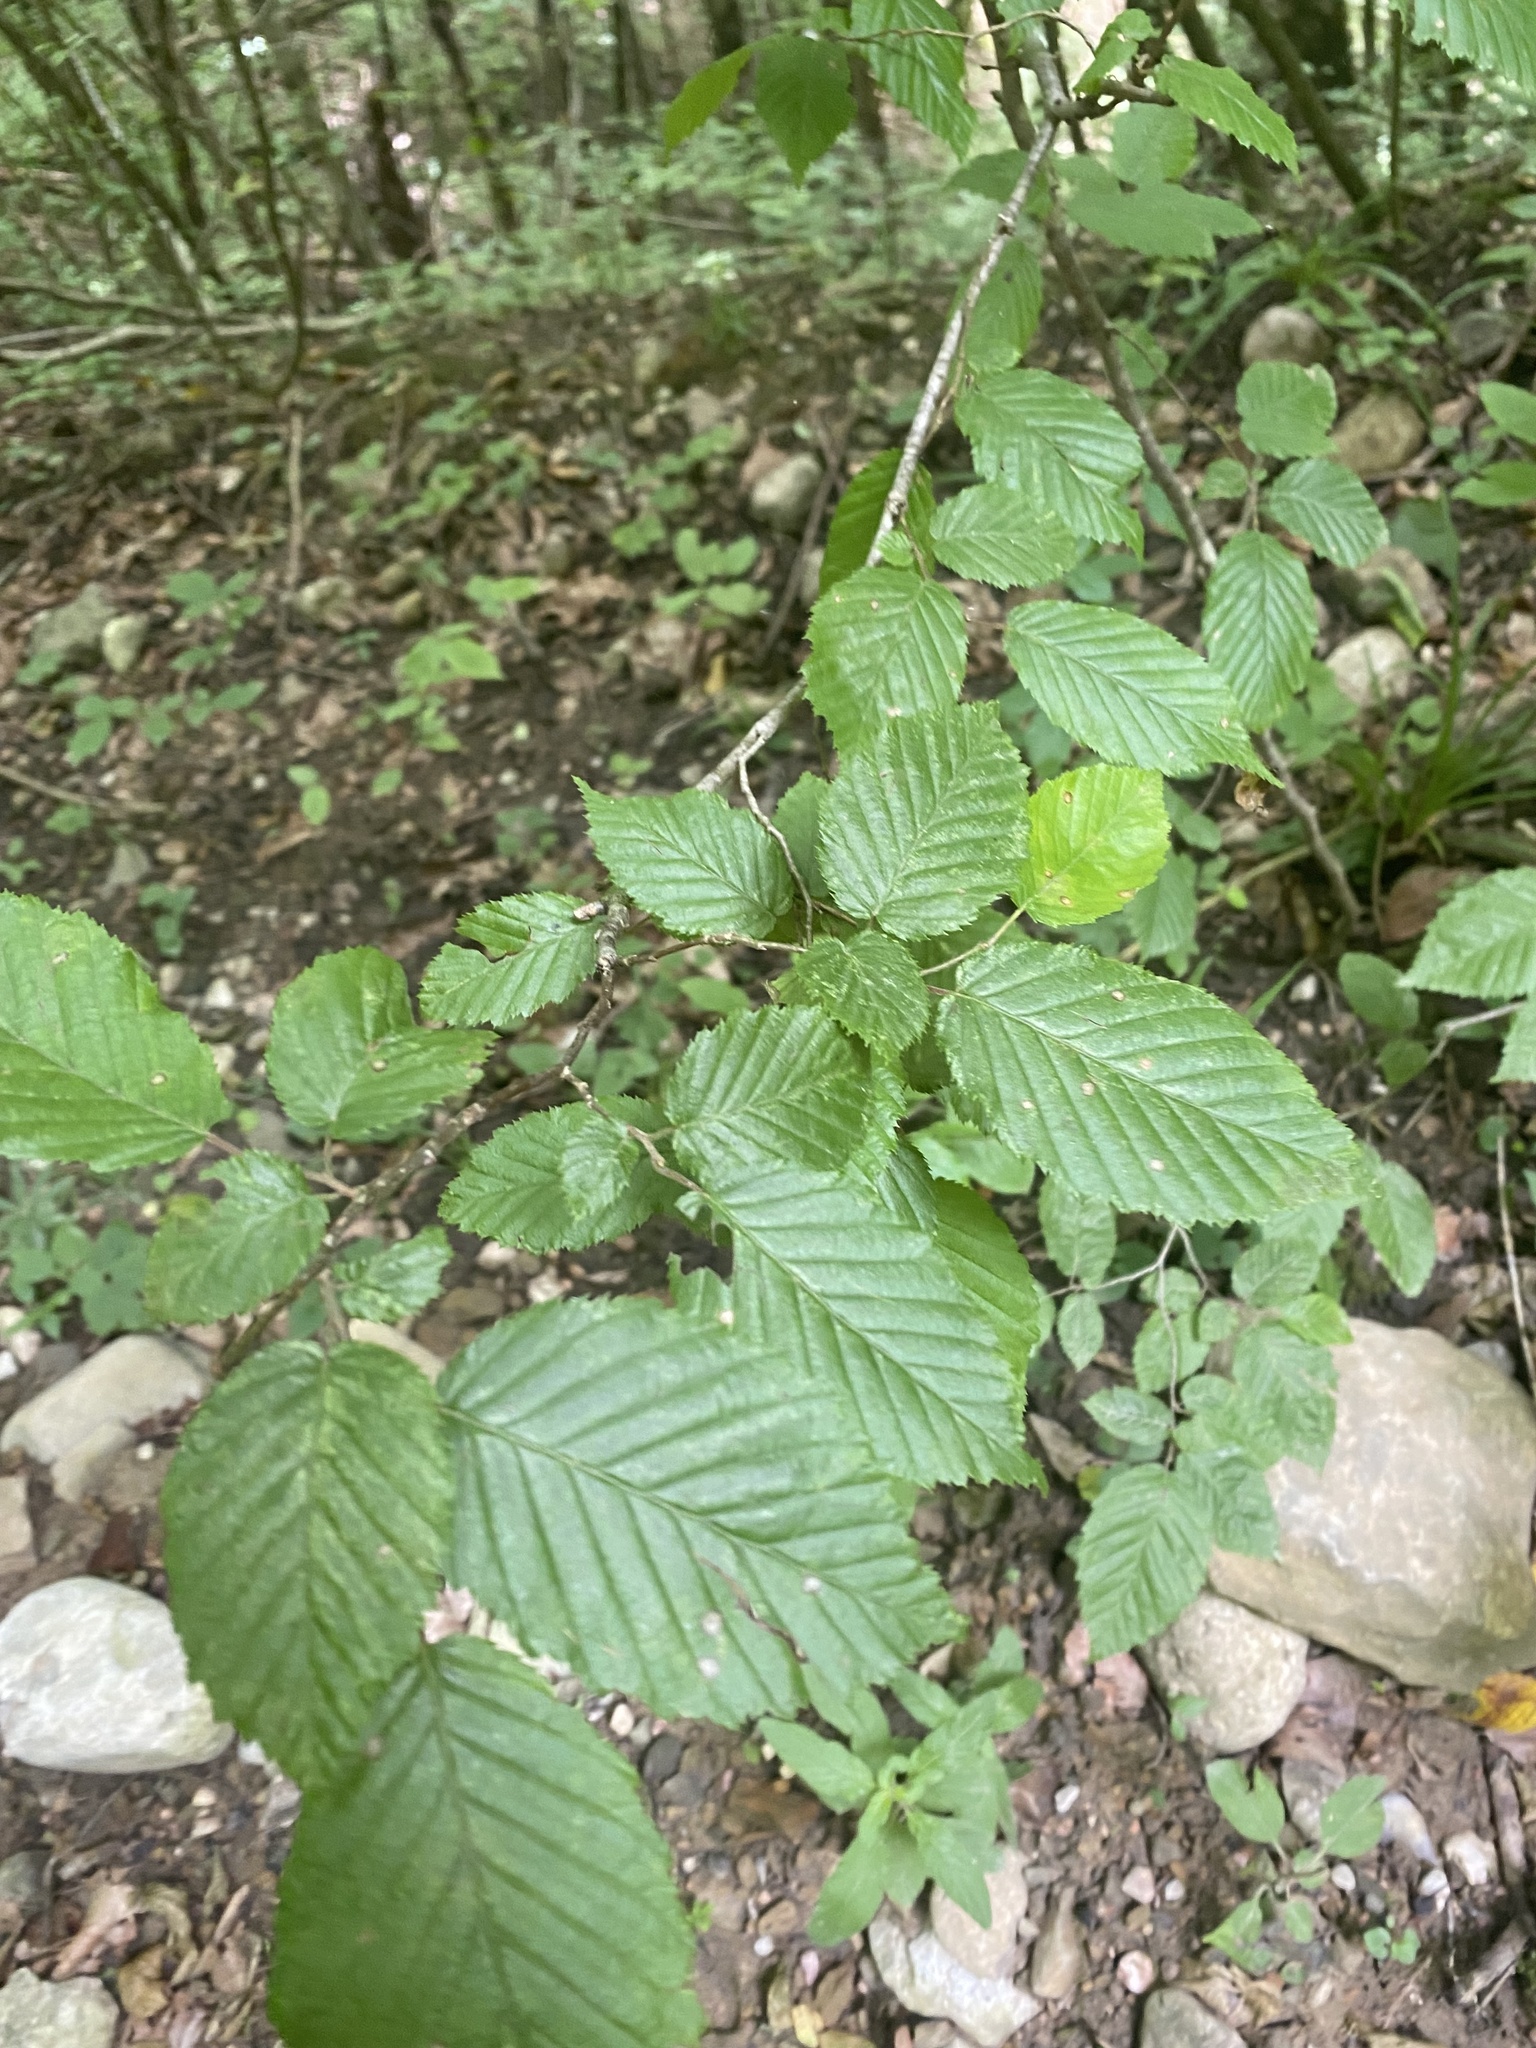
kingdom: Plantae
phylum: Tracheophyta
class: Magnoliopsida
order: Fagales
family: Betulaceae
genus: Carpinus
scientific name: Carpinus betulus
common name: Hornbeam
